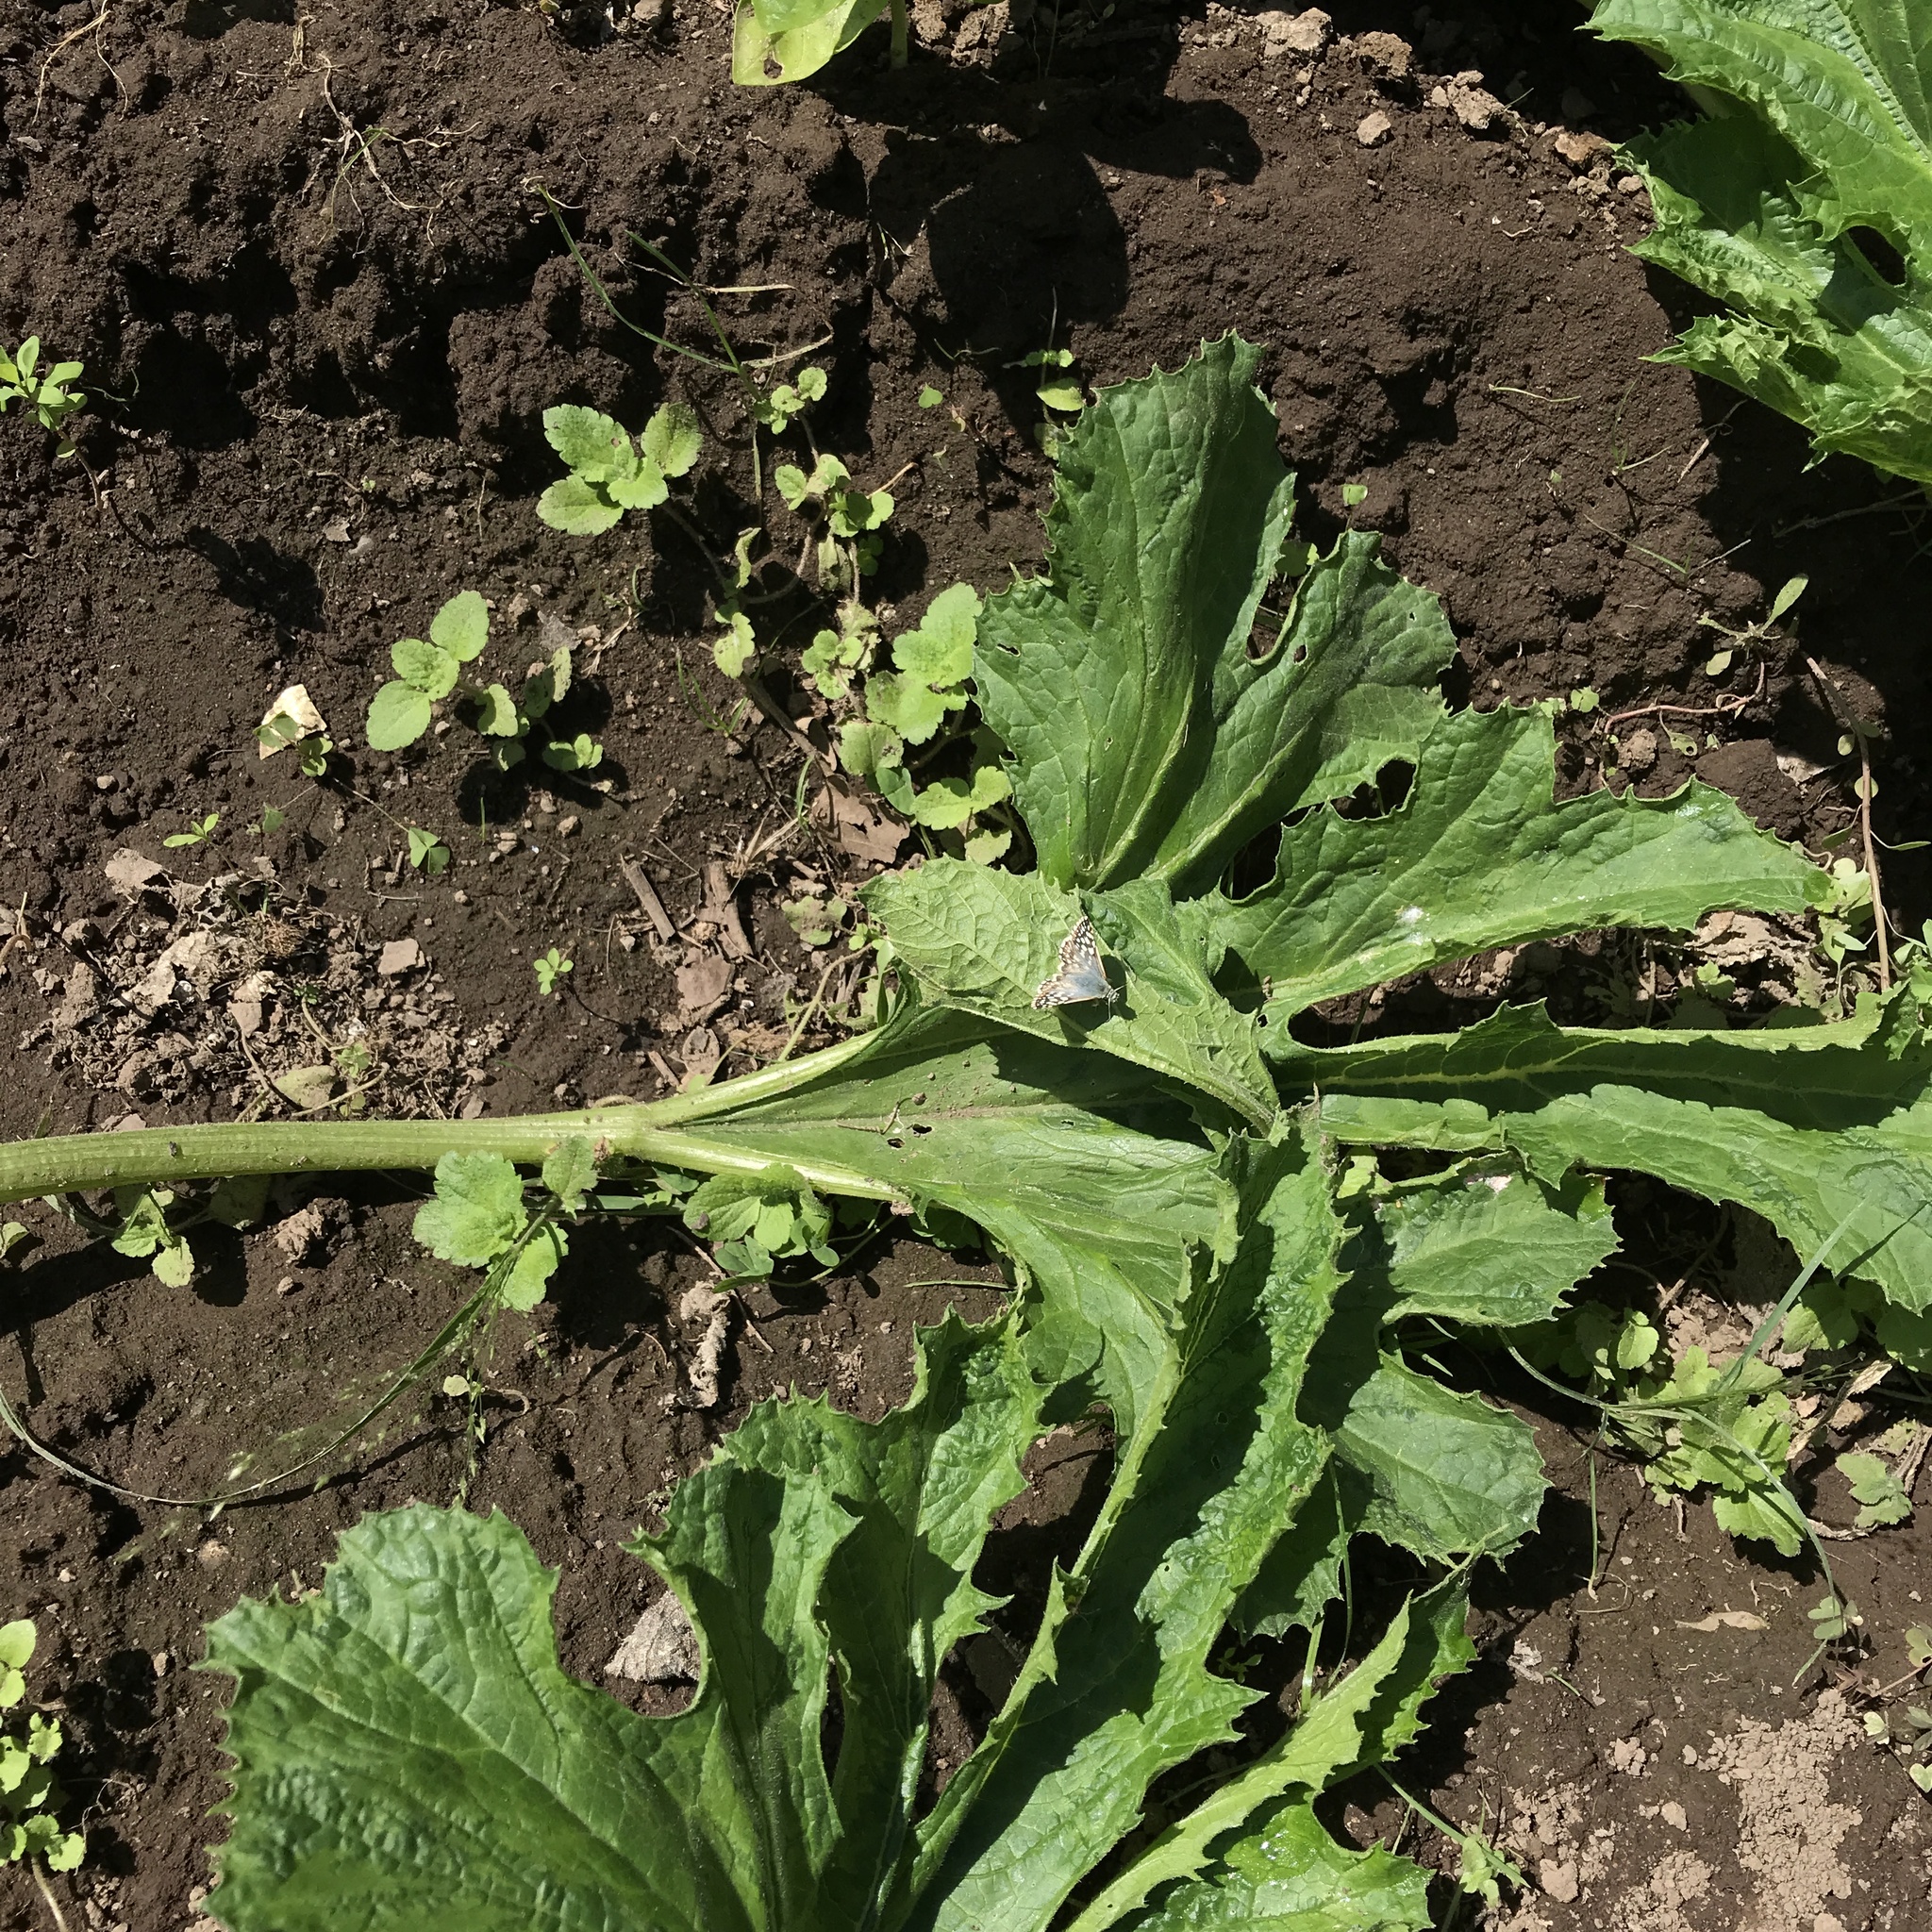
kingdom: Animalia
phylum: Arthropoda
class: Insecta
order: Lepidoptera
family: Hesperiidae
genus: Heliopetes
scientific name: Heliopetes americanus
